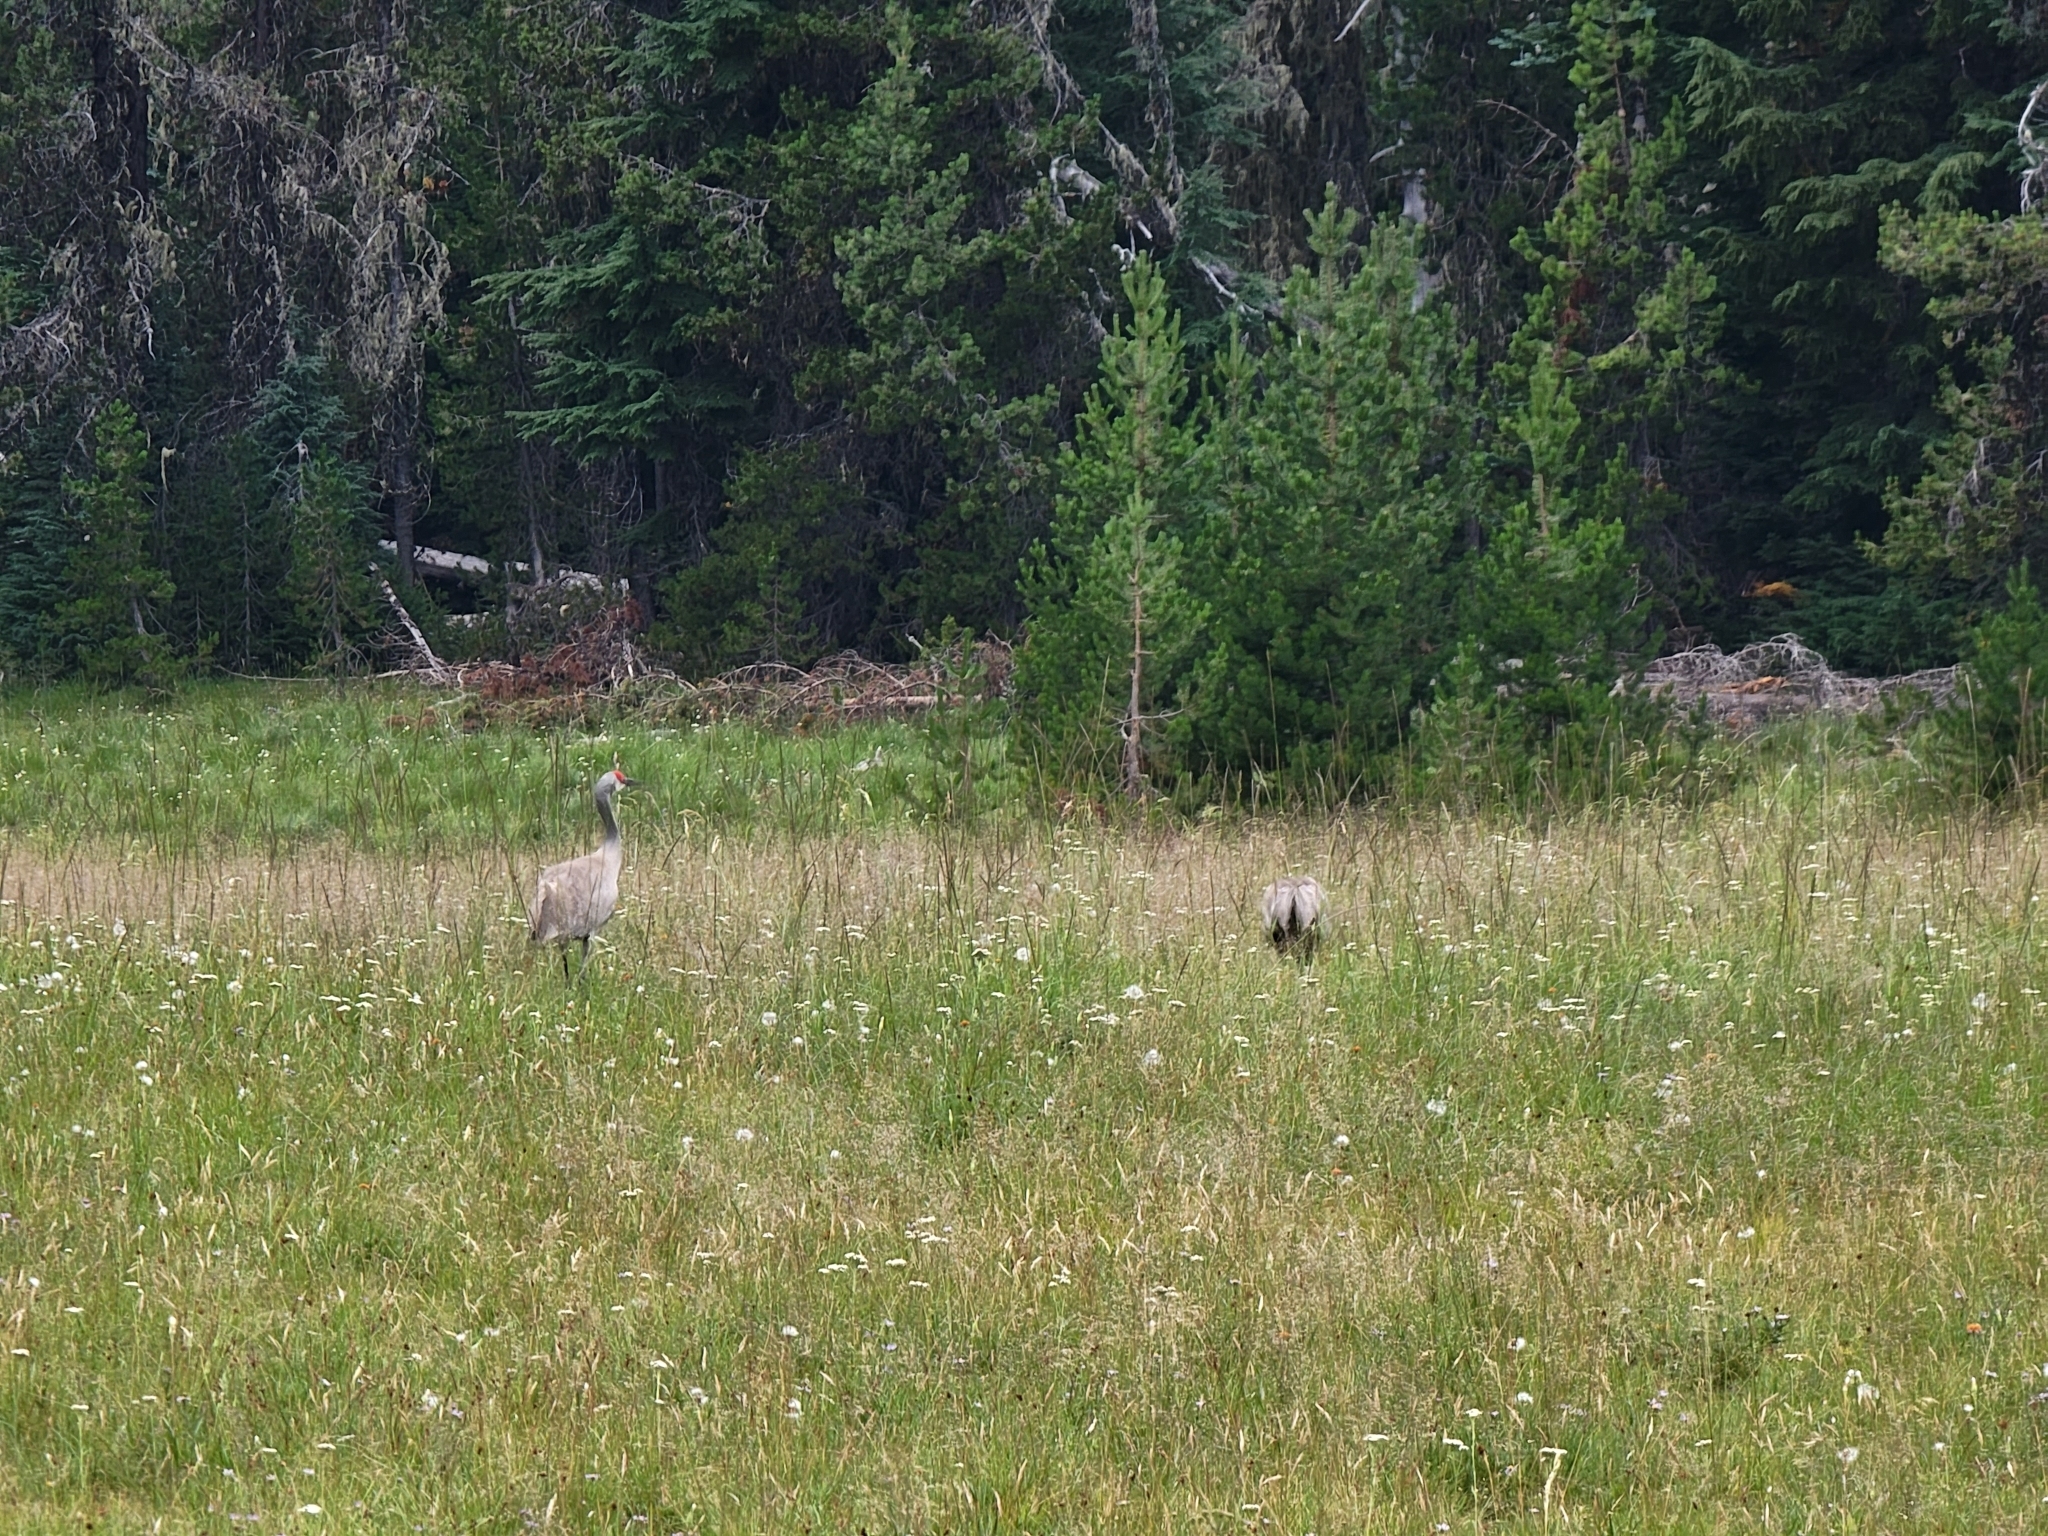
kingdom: Animalia
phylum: Chordata
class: Aves
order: Gruiformes
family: Gruidae
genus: Grus
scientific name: Grus canadensis
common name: Sandhill crane
